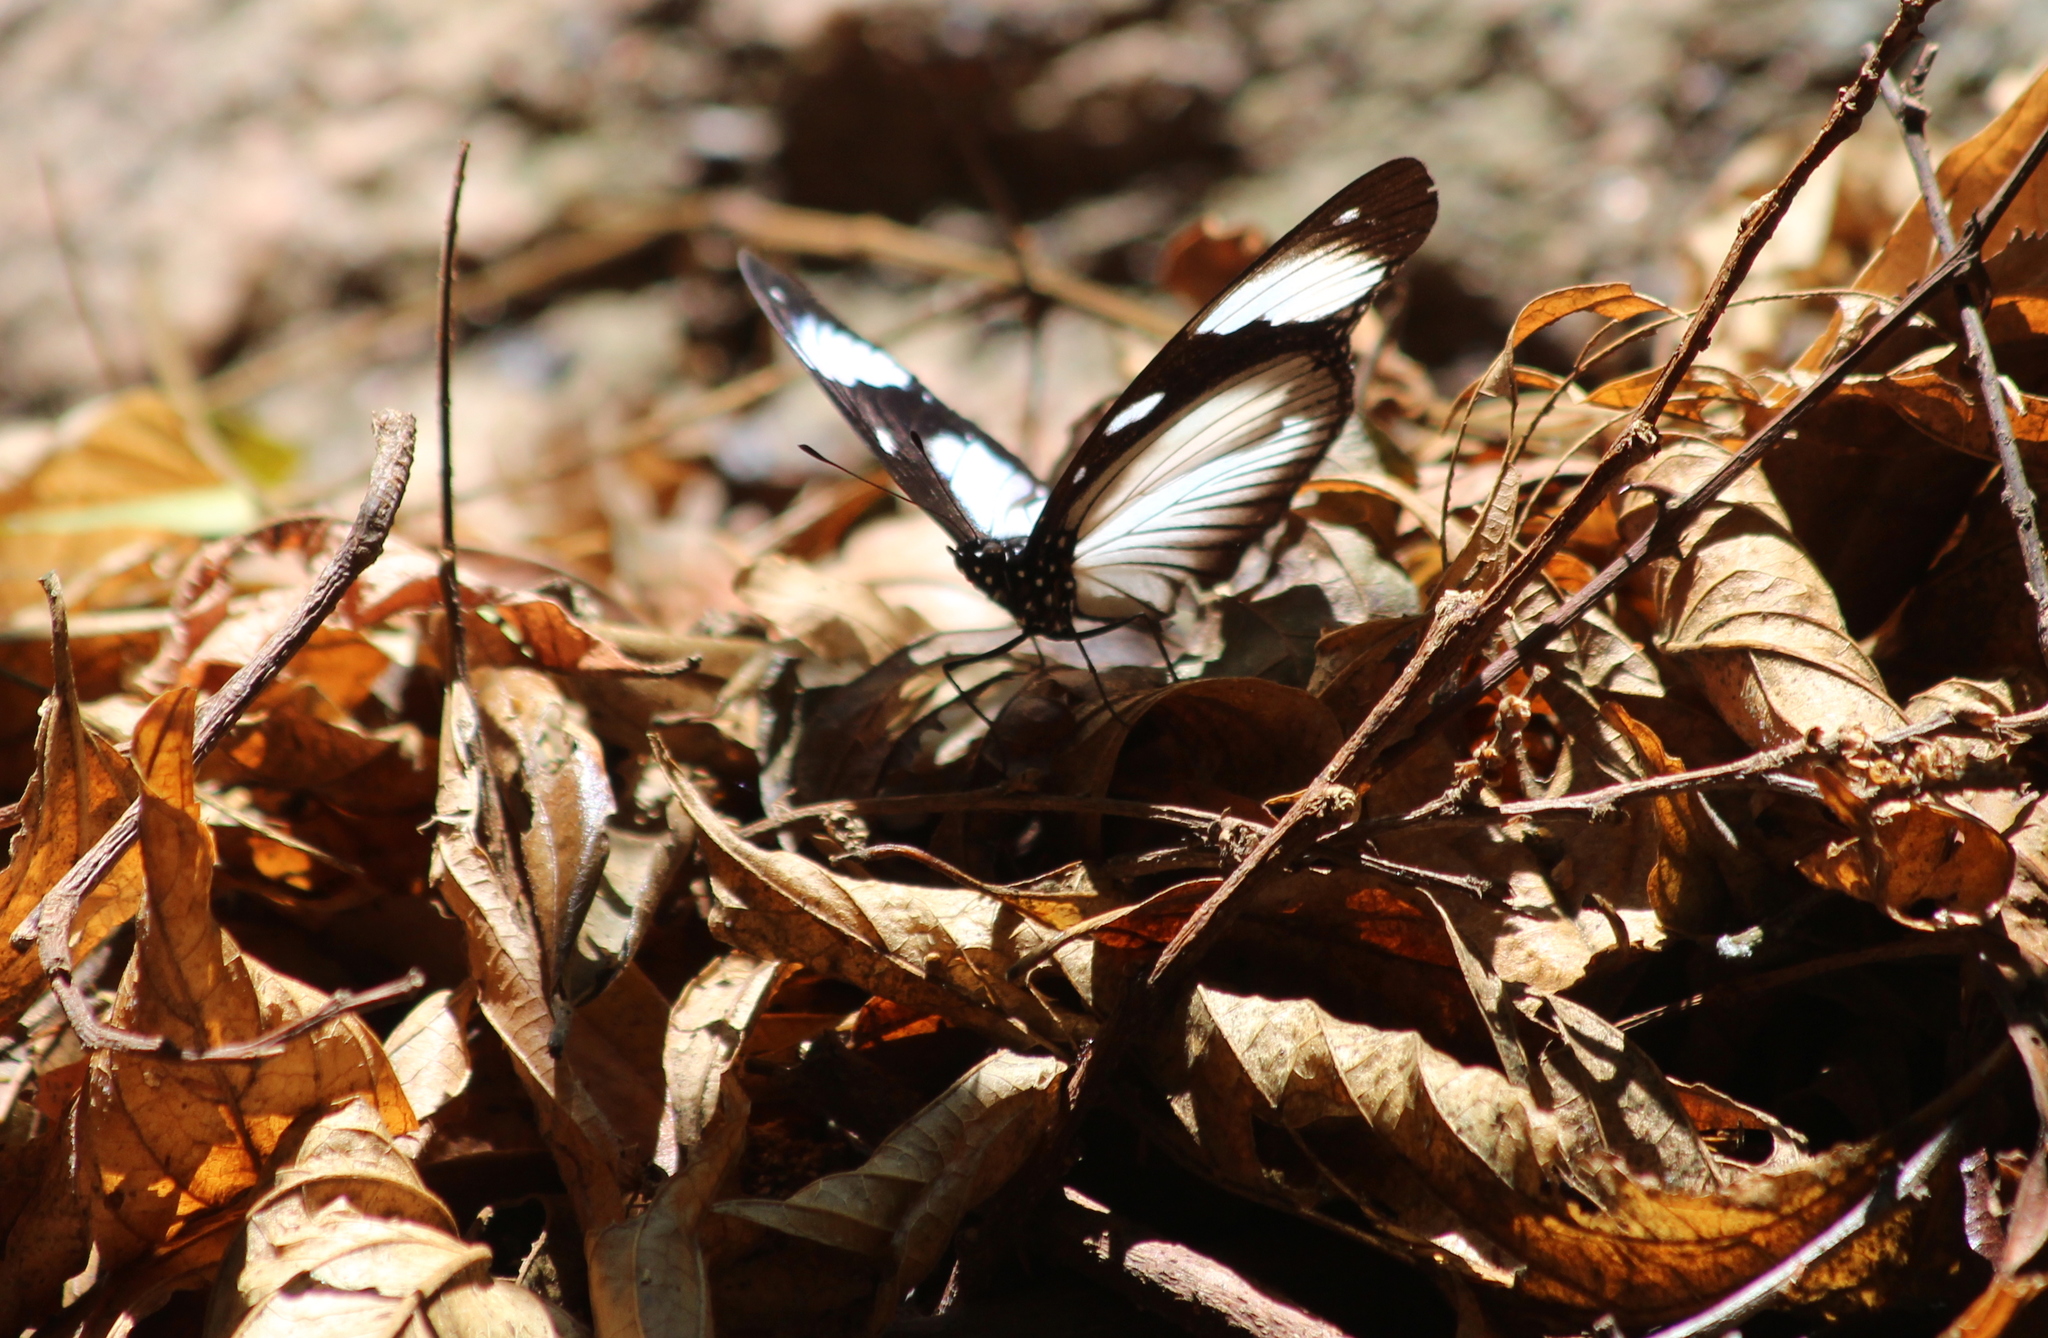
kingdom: Animalia
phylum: Arthropoda
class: Insecta
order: Lepidoptera
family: Nymphalidae
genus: Hypolimnas
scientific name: Hypolimnas dubius
